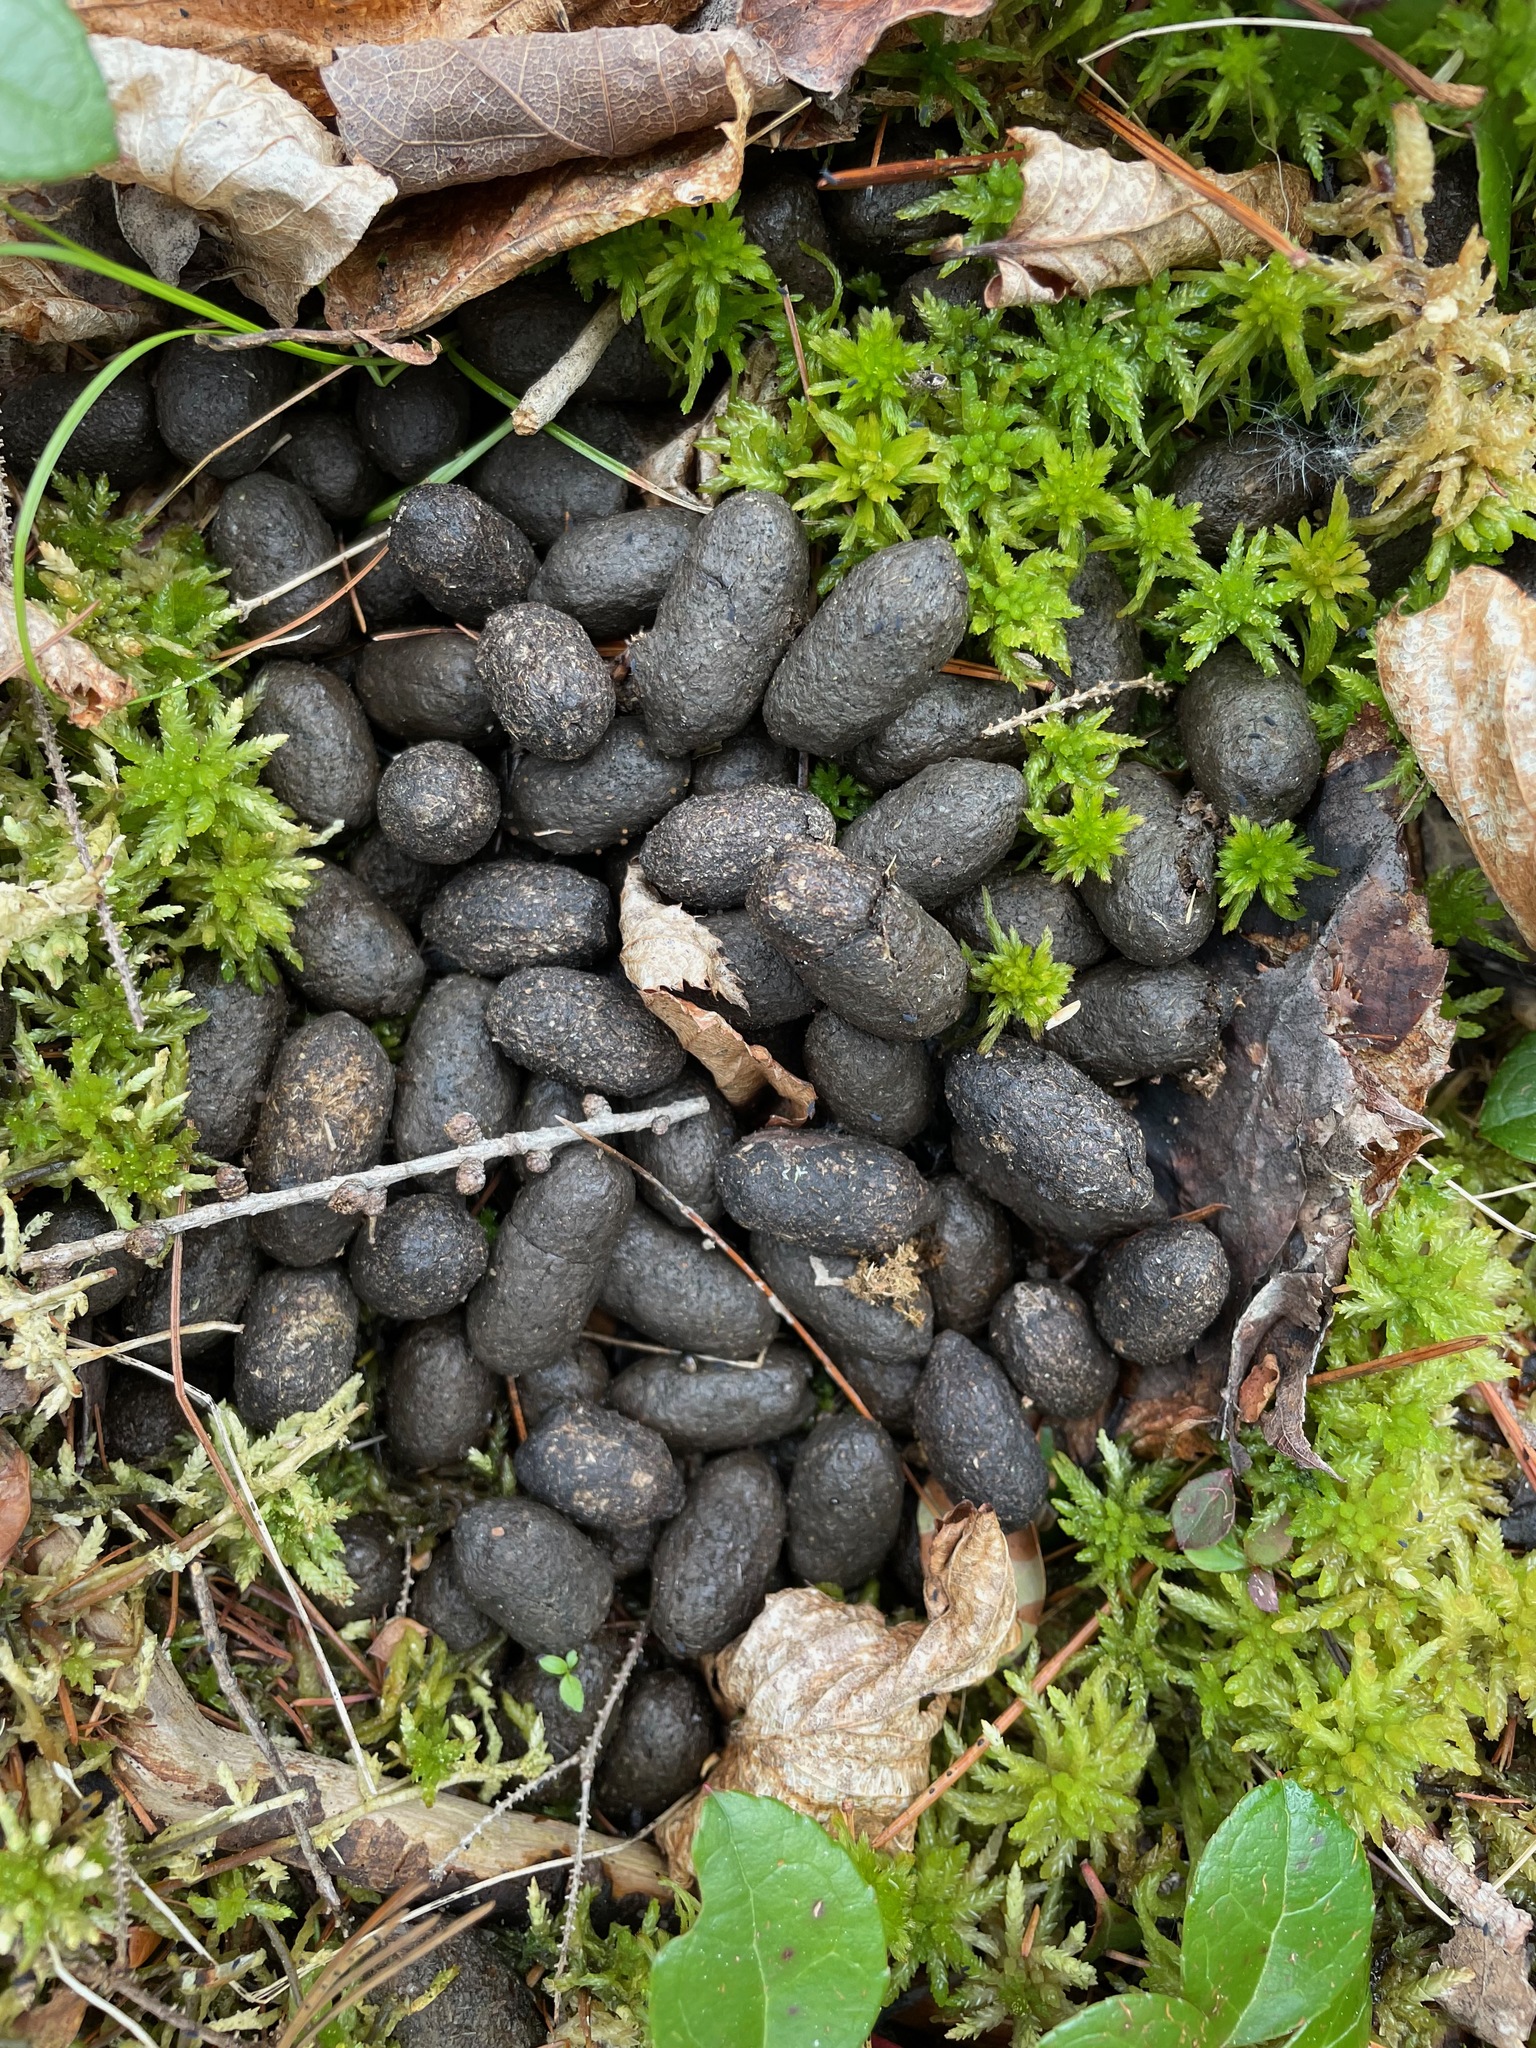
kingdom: Animalia
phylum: Chordata
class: Mammalia
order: Artiodactyla
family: Cervidae
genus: Odocoileus
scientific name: Odocoileus virginianus
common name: White-tailed deer
